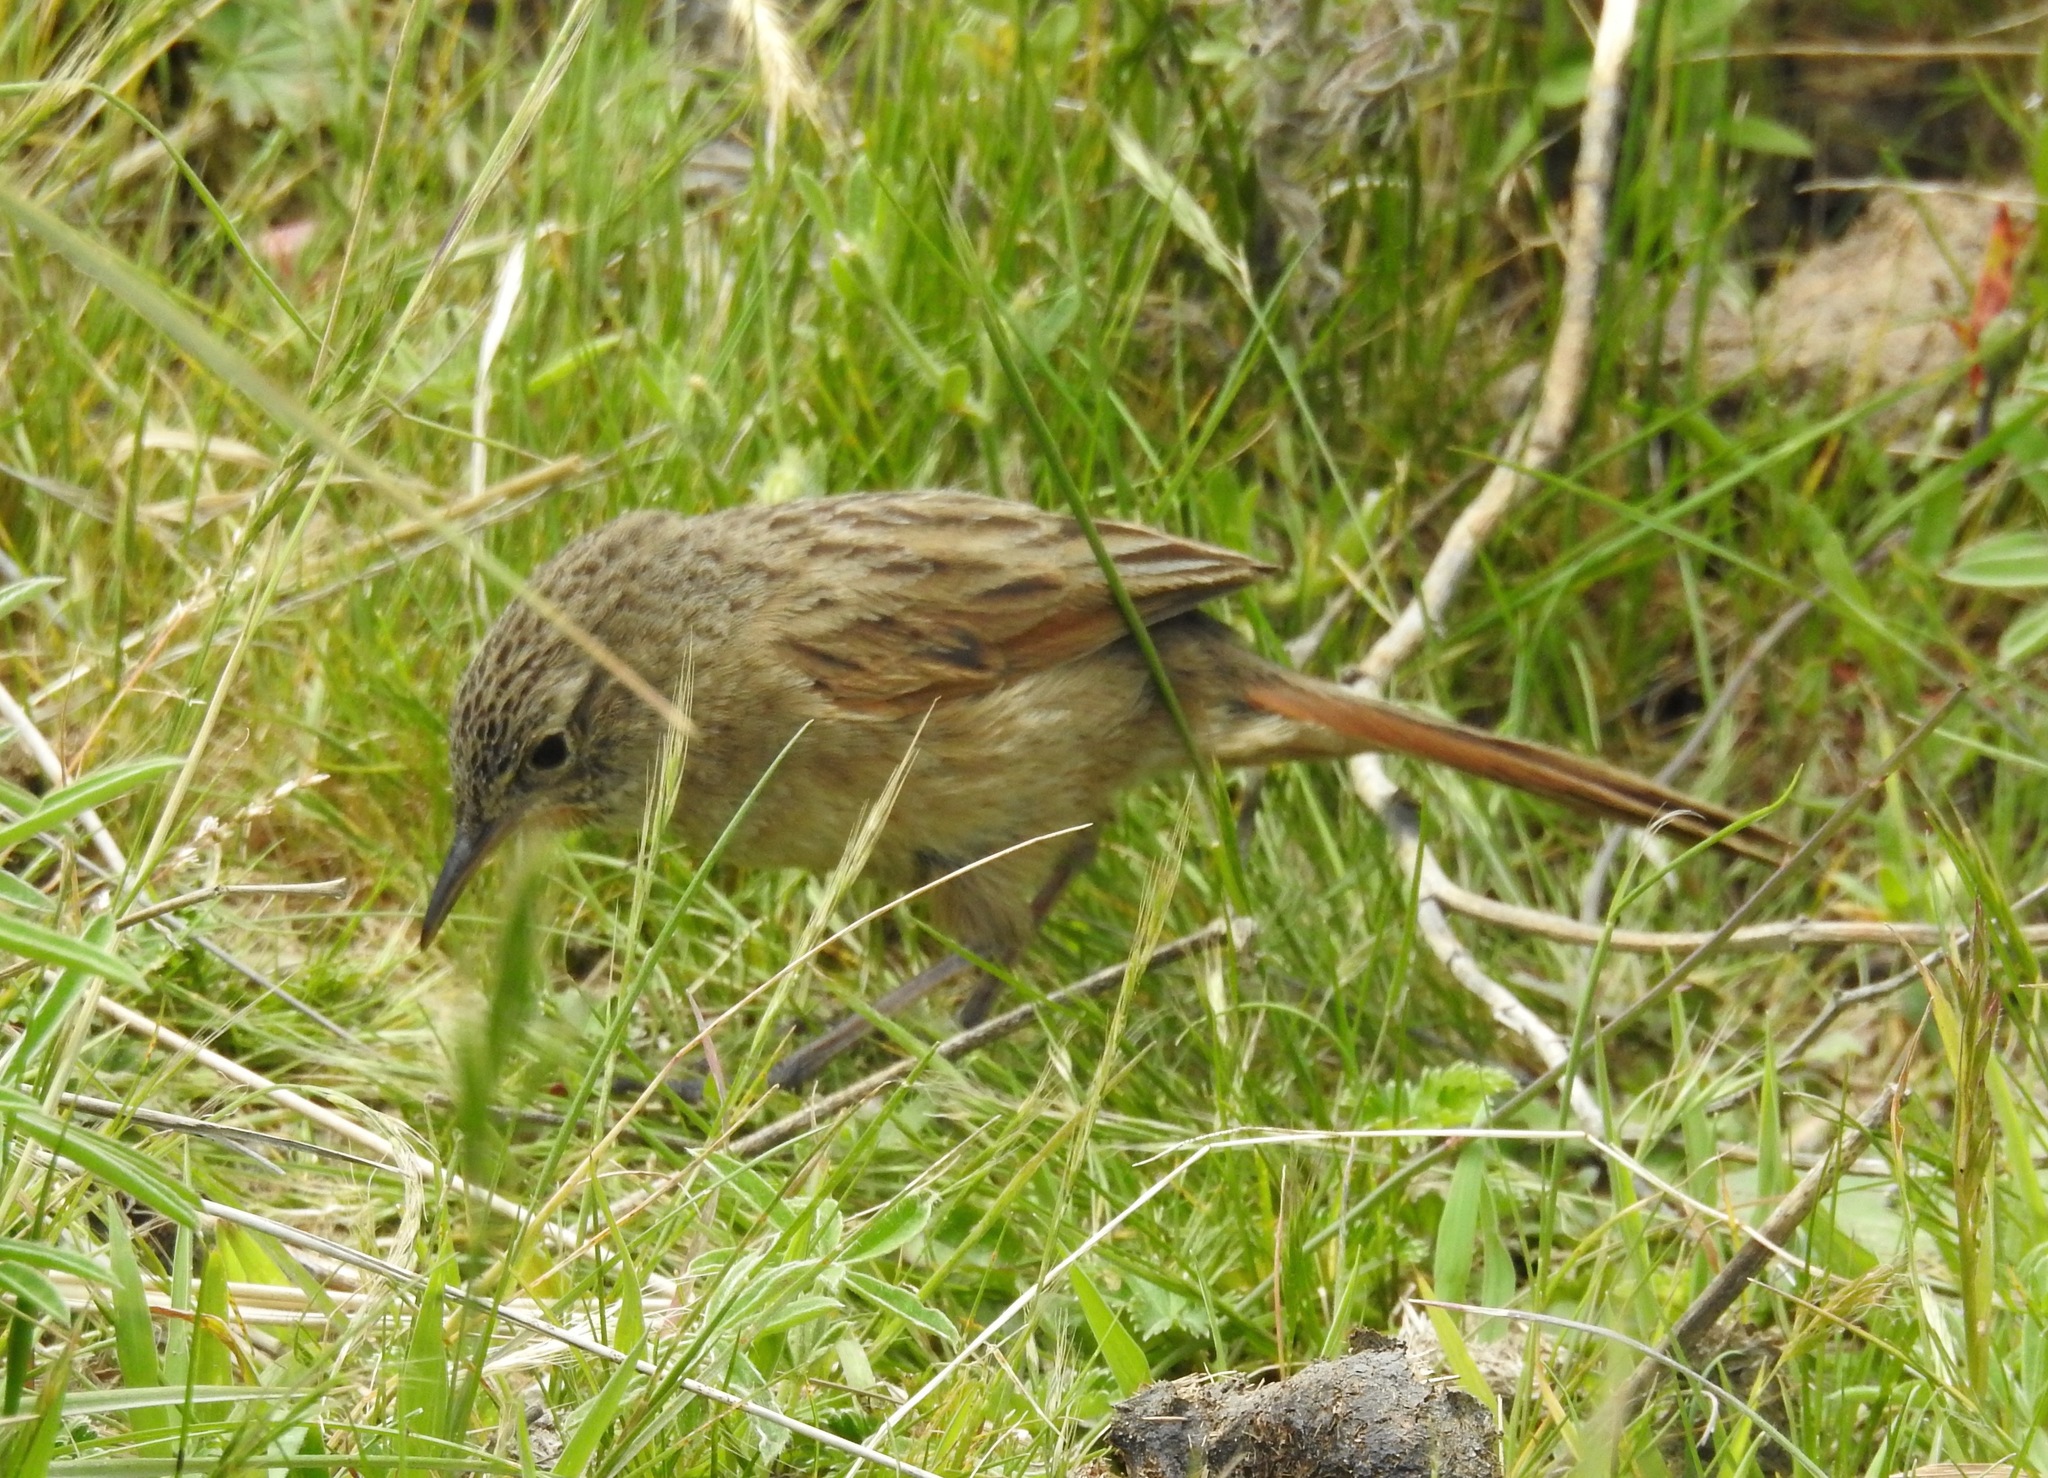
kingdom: Animalia
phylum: Chordata
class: Aves
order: Passeriformes
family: Furnariidae
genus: Asthenes
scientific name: Asthenes wyatti
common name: Streak-backed canastero
